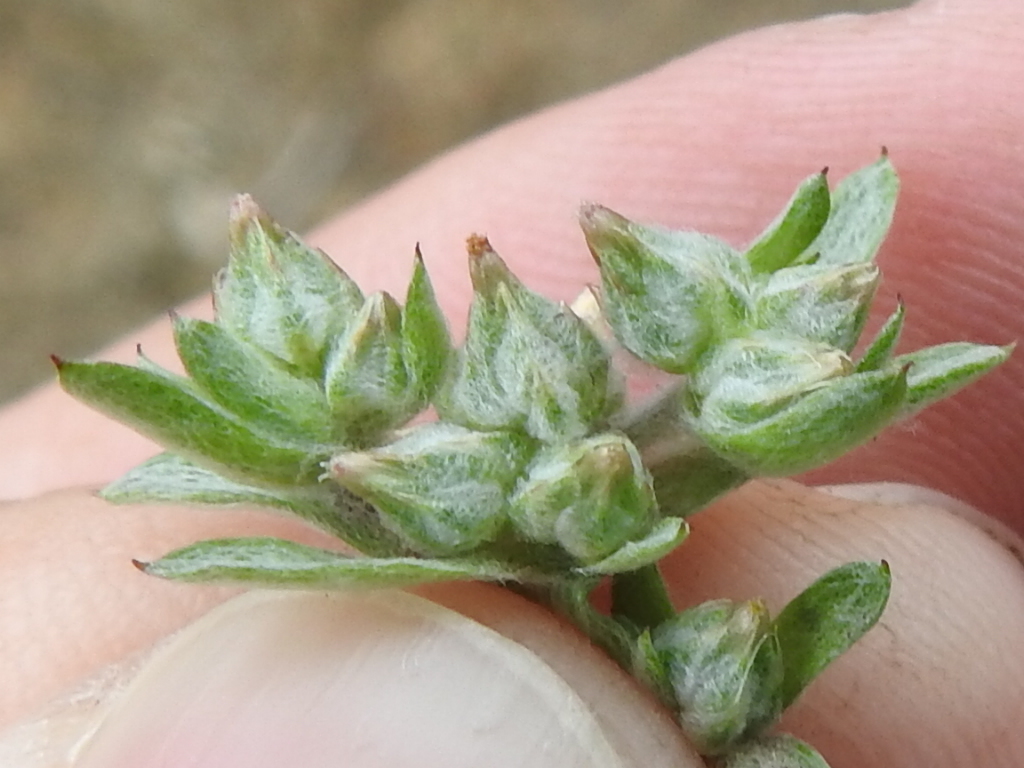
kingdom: Plantae
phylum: Tracheophyta
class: Magnoliopsida
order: Asterales
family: Asteraceae
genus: Logfia
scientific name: Logfia californica
